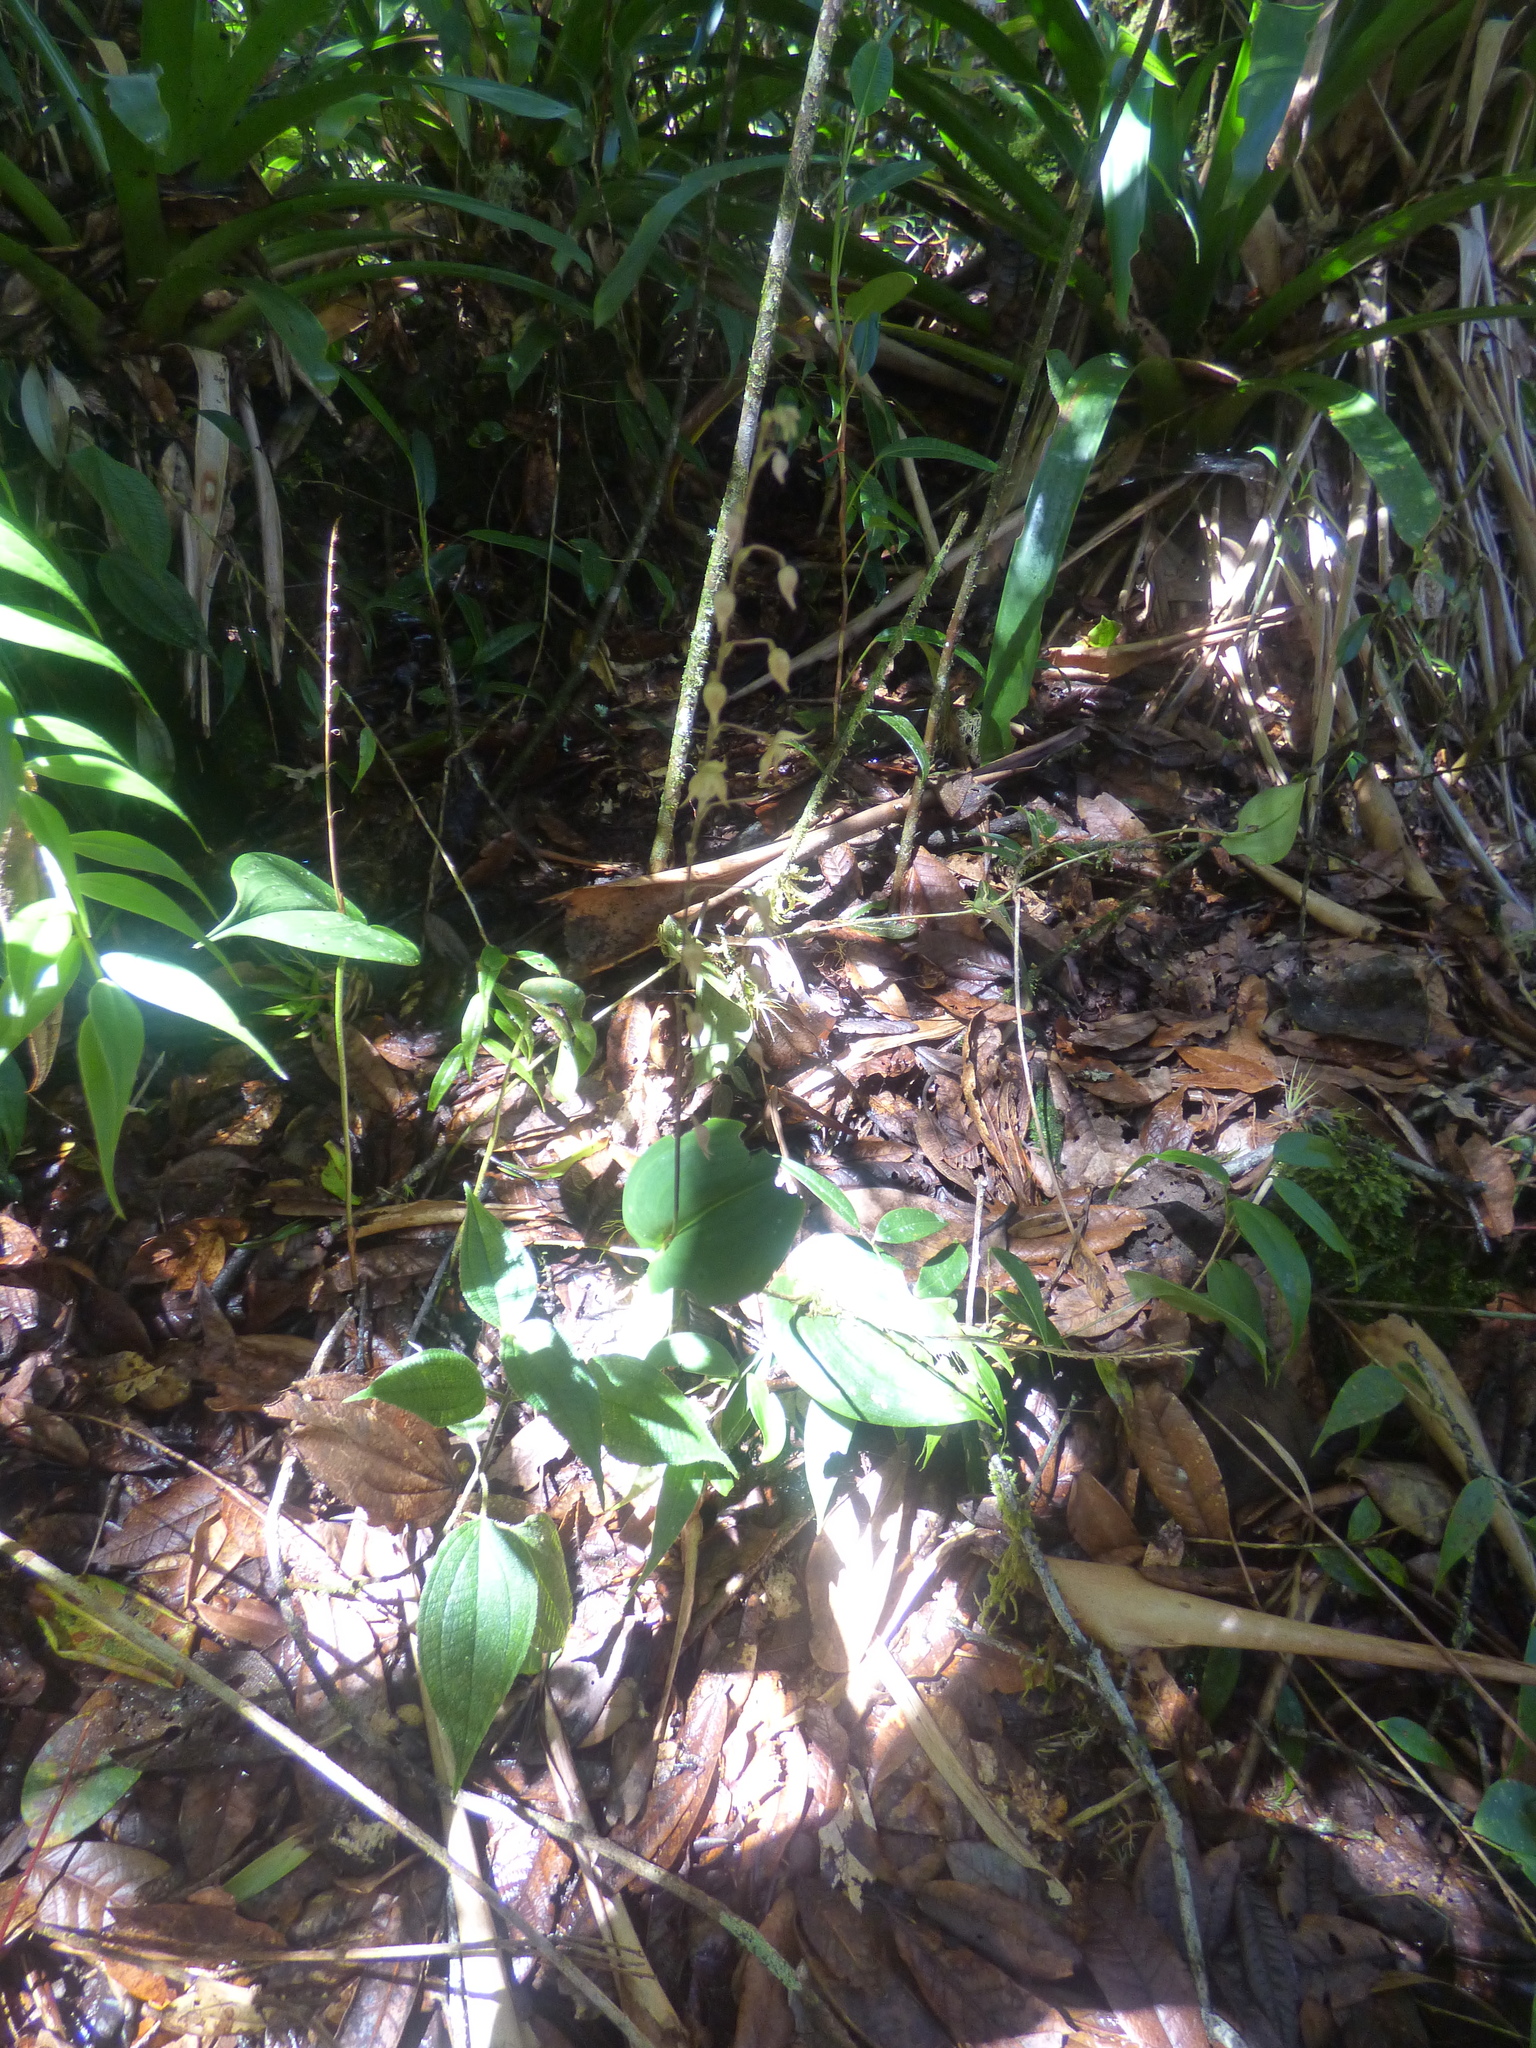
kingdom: Plantae
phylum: Tracheophyta
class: Liliopsida
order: Asparagales
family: Orchidaceae
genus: Pleurothallis
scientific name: Pleurothallis lopezii
